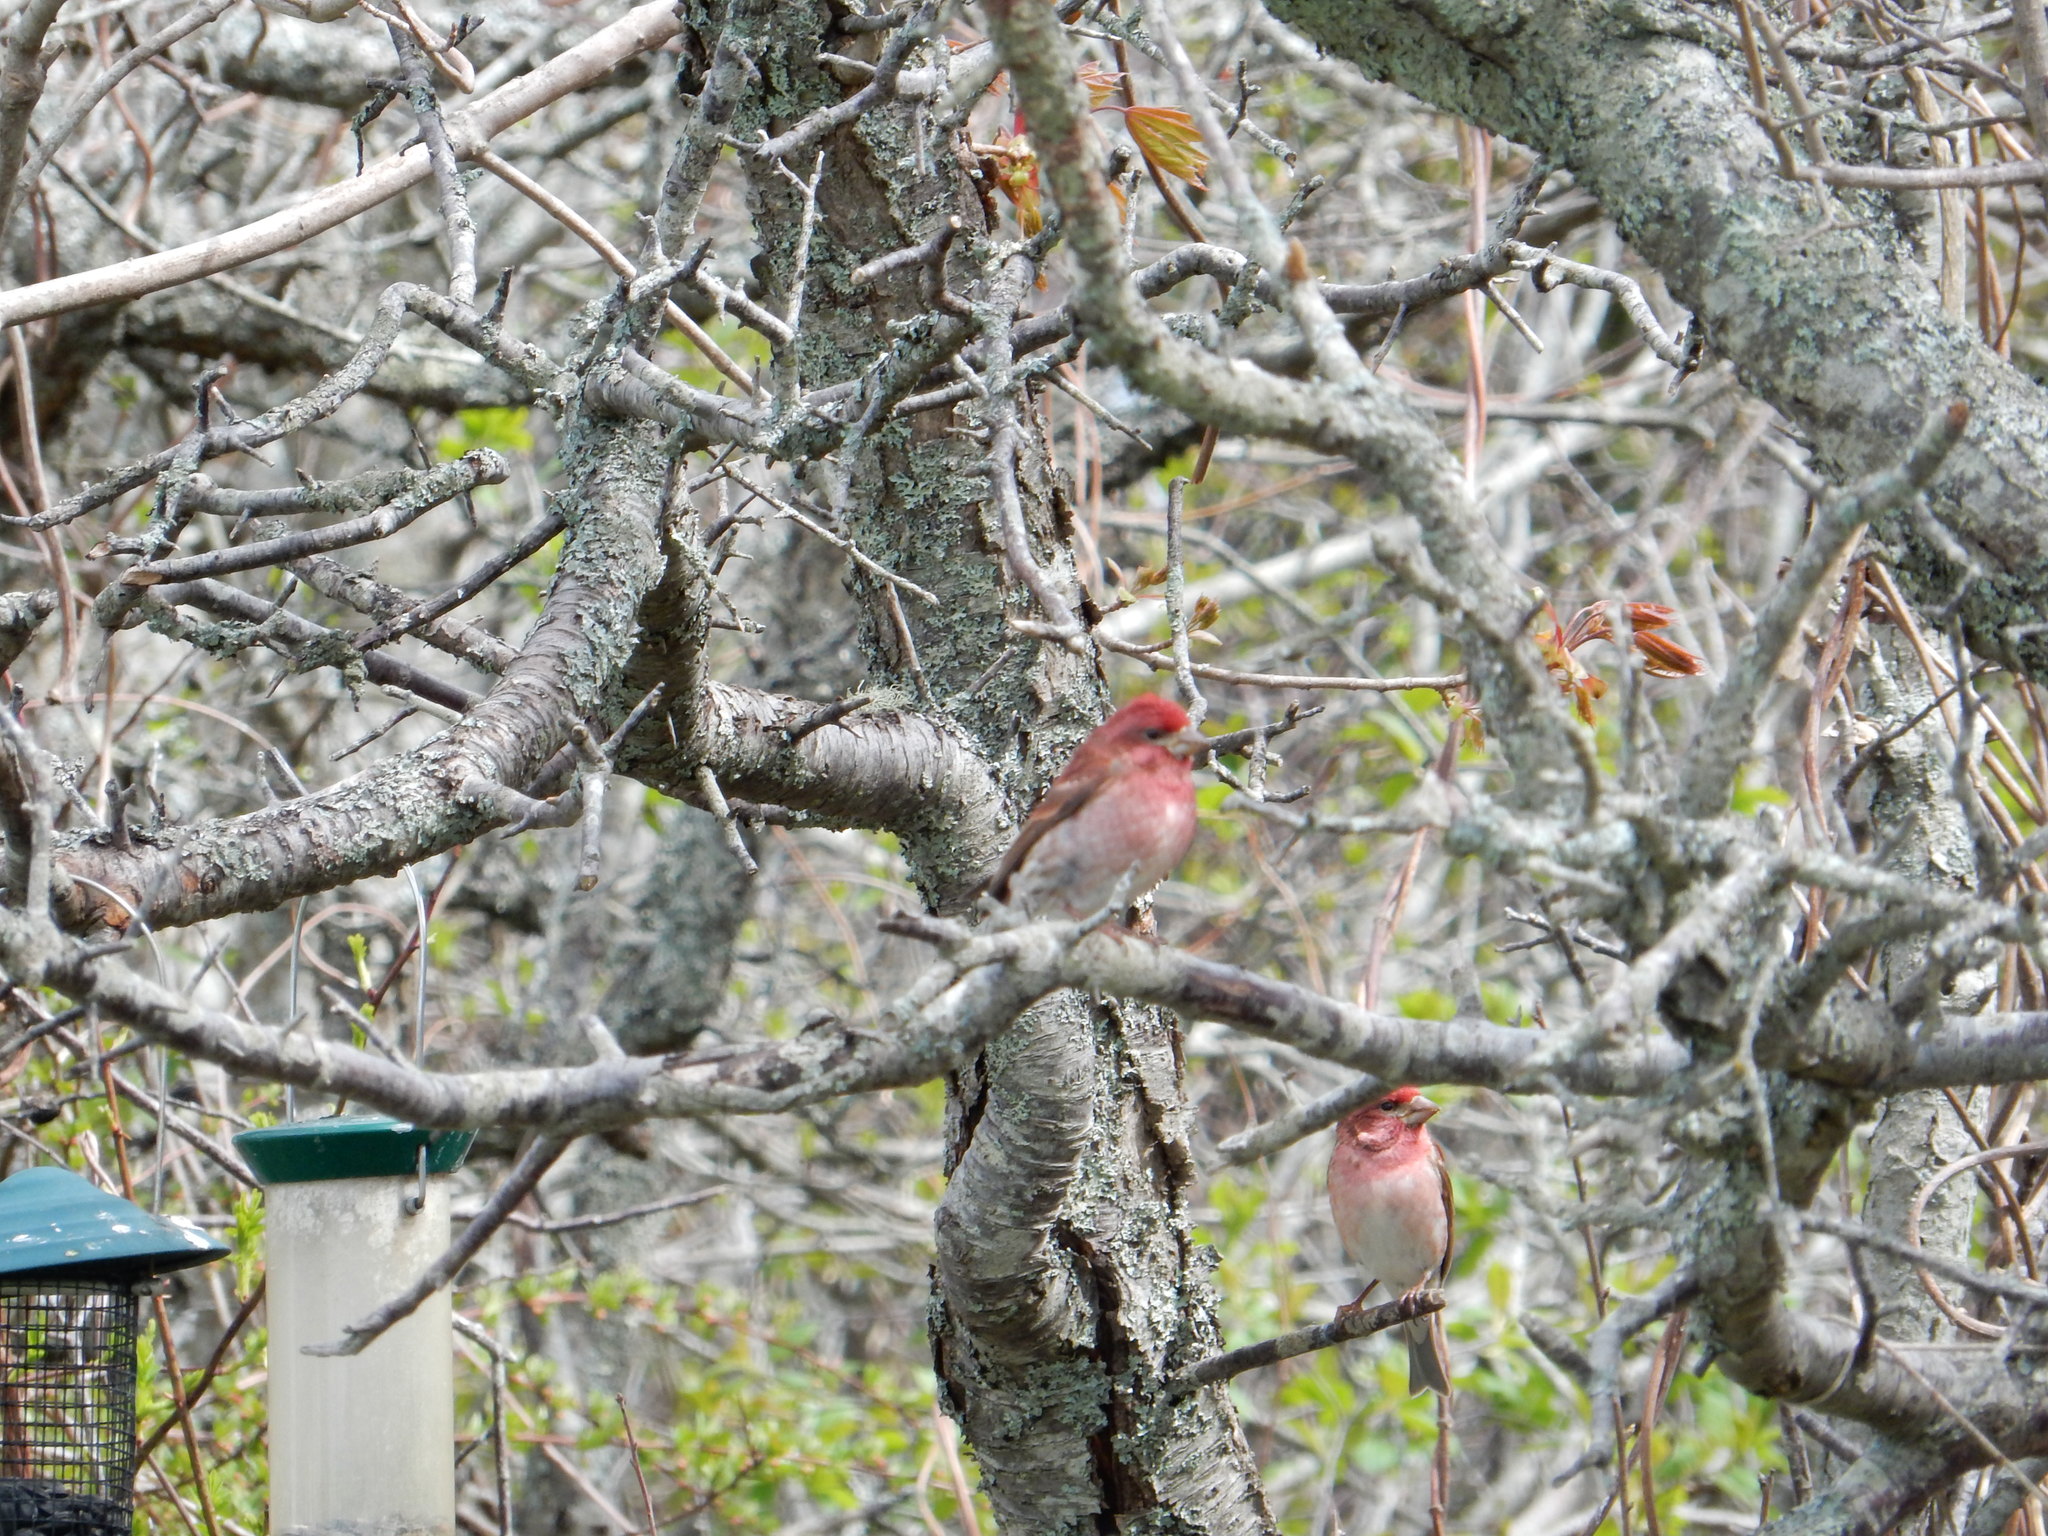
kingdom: Animalia
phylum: Chordata
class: Aves
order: Passeriformes
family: Fringillidae
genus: Haemorhous
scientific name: Haemorhous purpureus
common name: Purple finch
